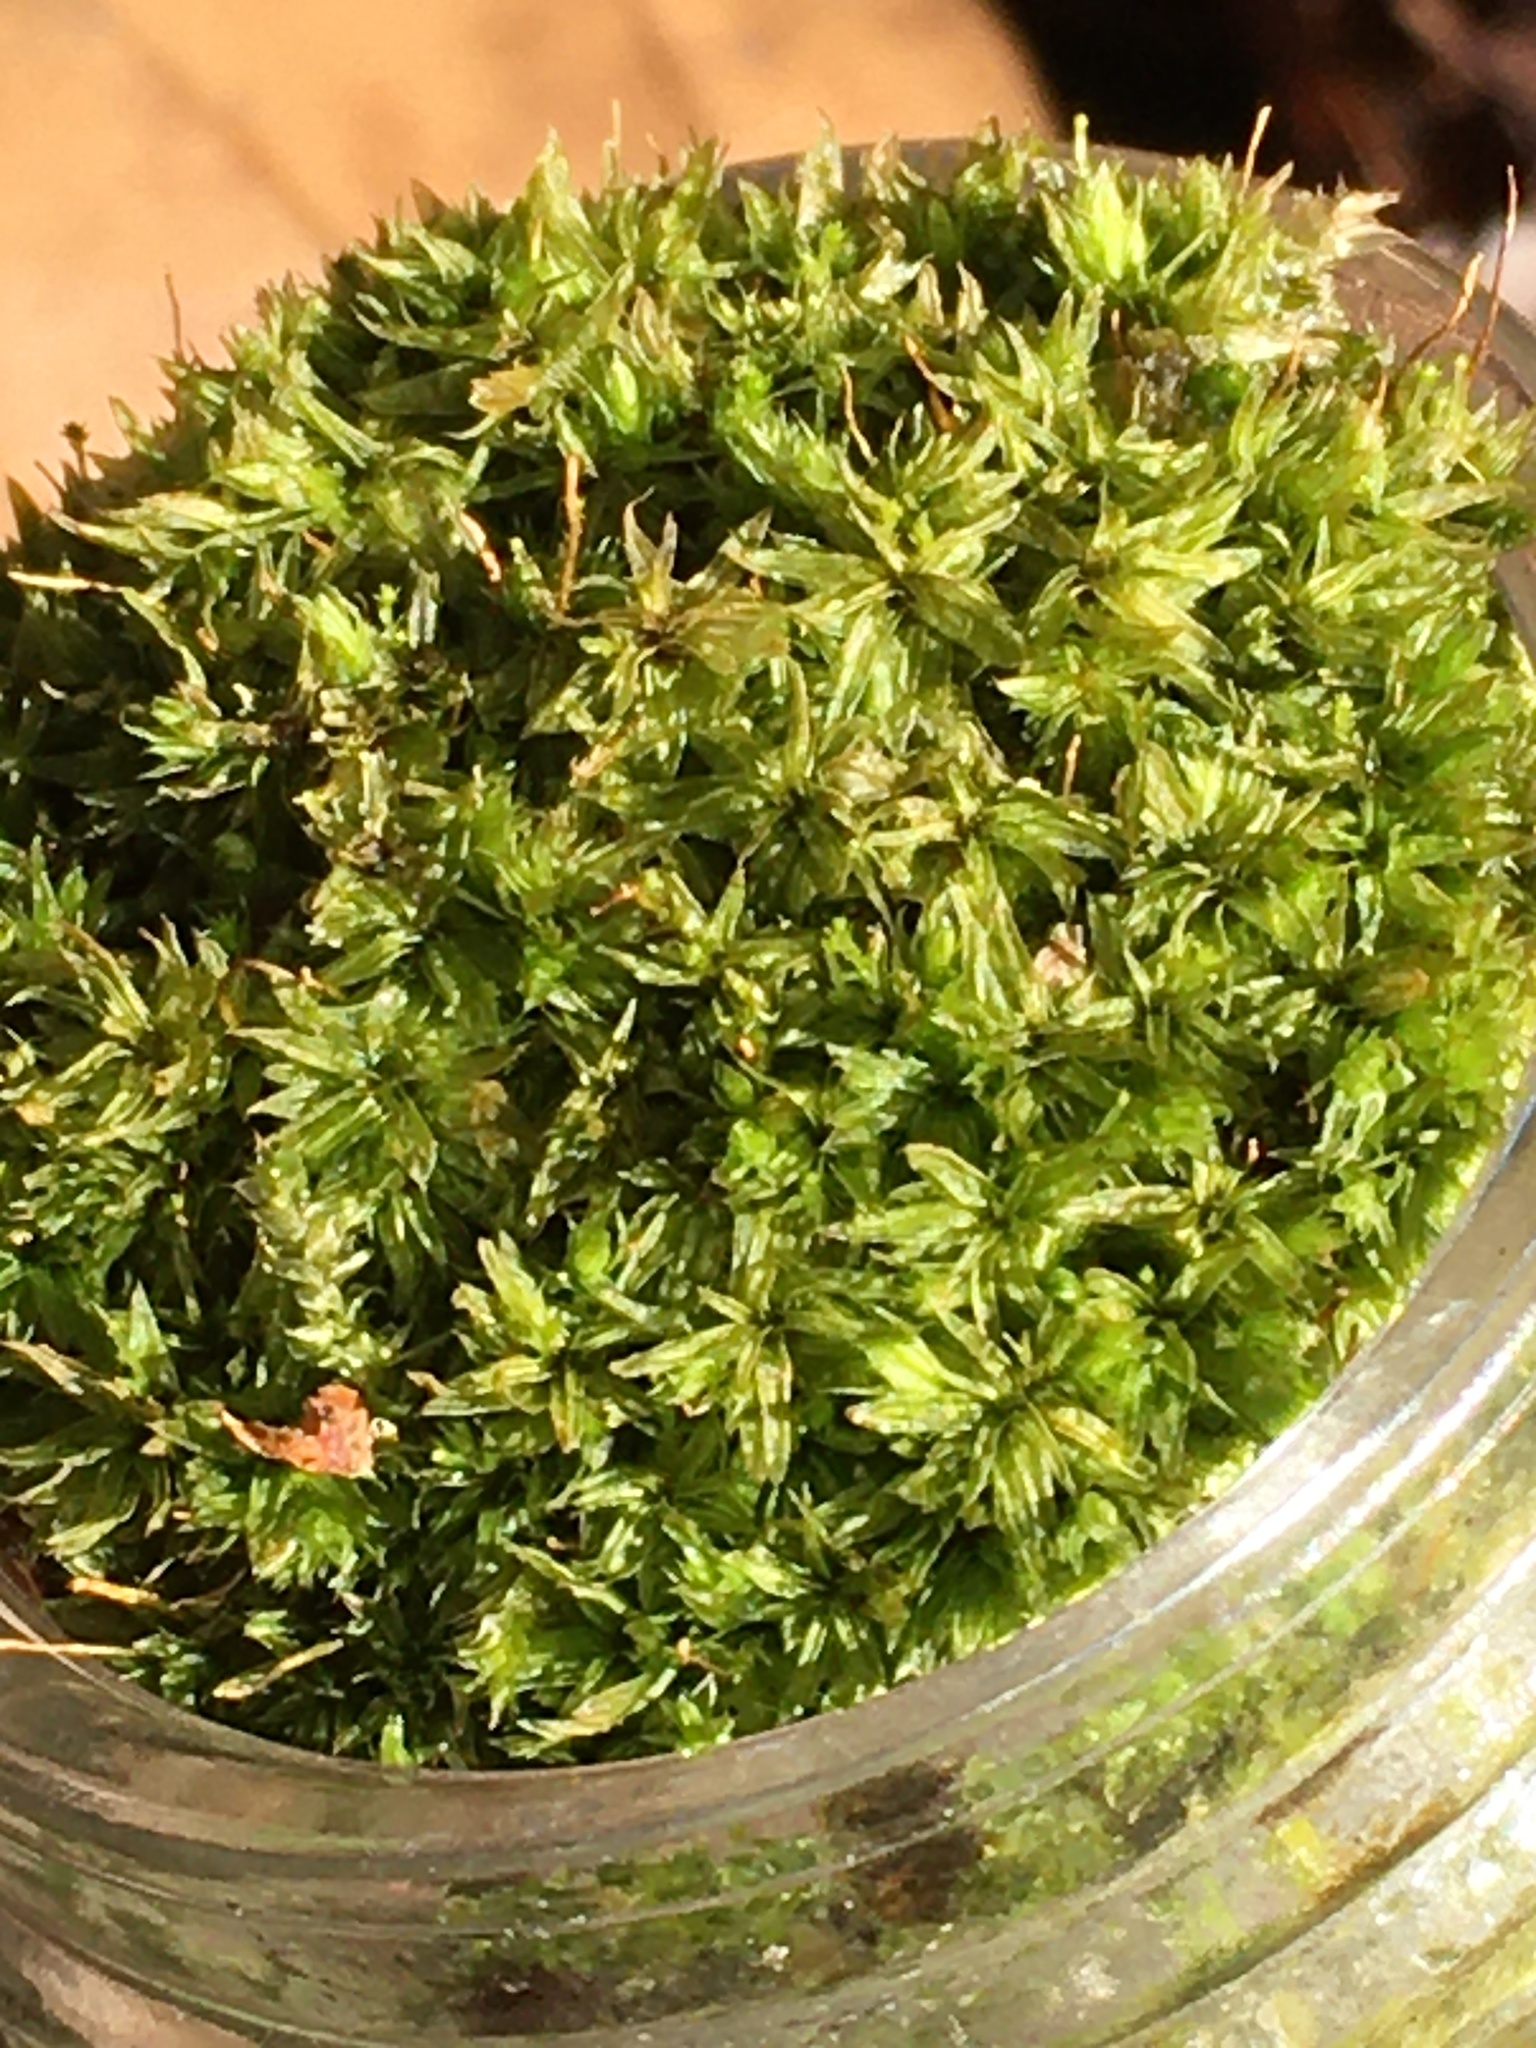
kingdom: Plantae
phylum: Bryophyta
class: Polytrichopsida
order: Polytrichales
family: Polytrichaceae
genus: Atrichum
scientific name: Atrichum angustatum
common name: Lesser smoothcap
